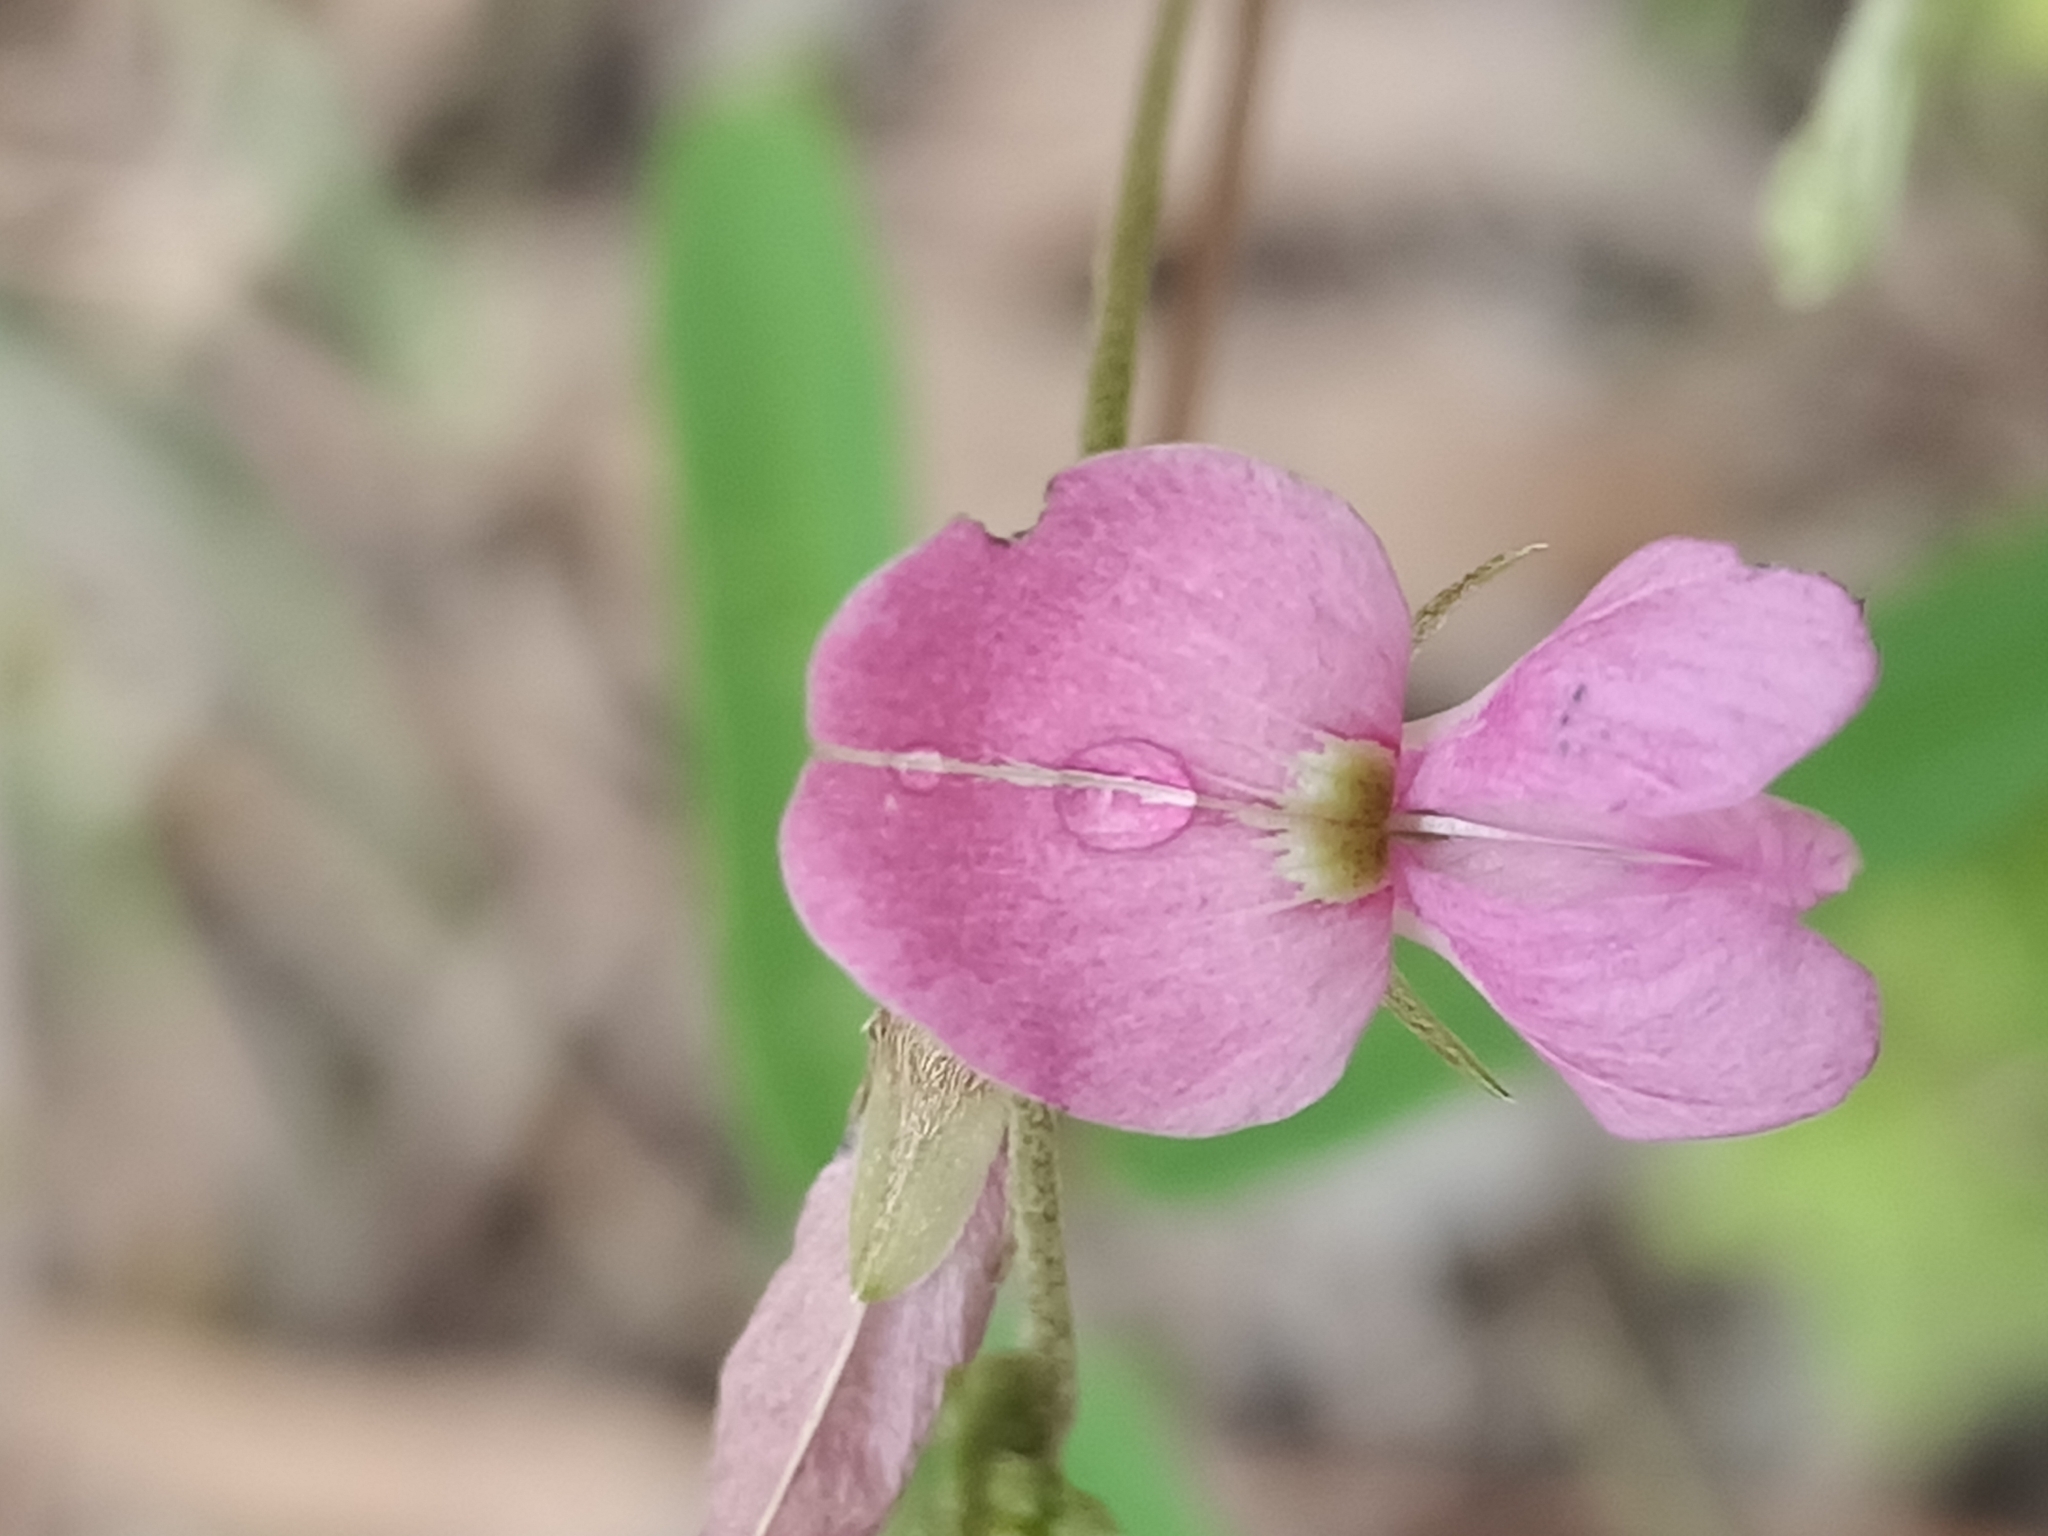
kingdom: Plantae
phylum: Tracheophyta
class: Magnoliopsida
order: Fabales
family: Fabaceae
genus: Galactia
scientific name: Galactia tenuiflora
